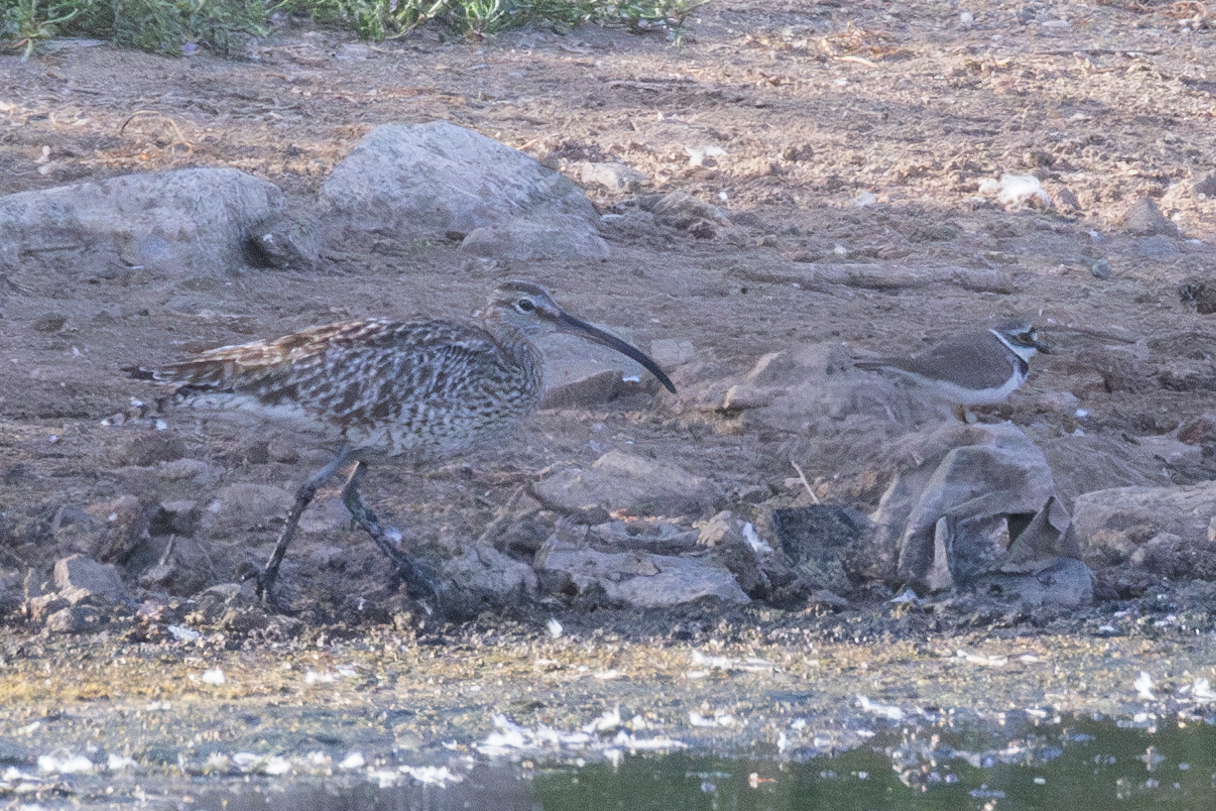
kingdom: Animalia
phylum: Chordata
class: Aves
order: Charadriiformes
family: Scolopacidae
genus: Numenius
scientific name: Numenius phaeopus
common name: Whimbrel
